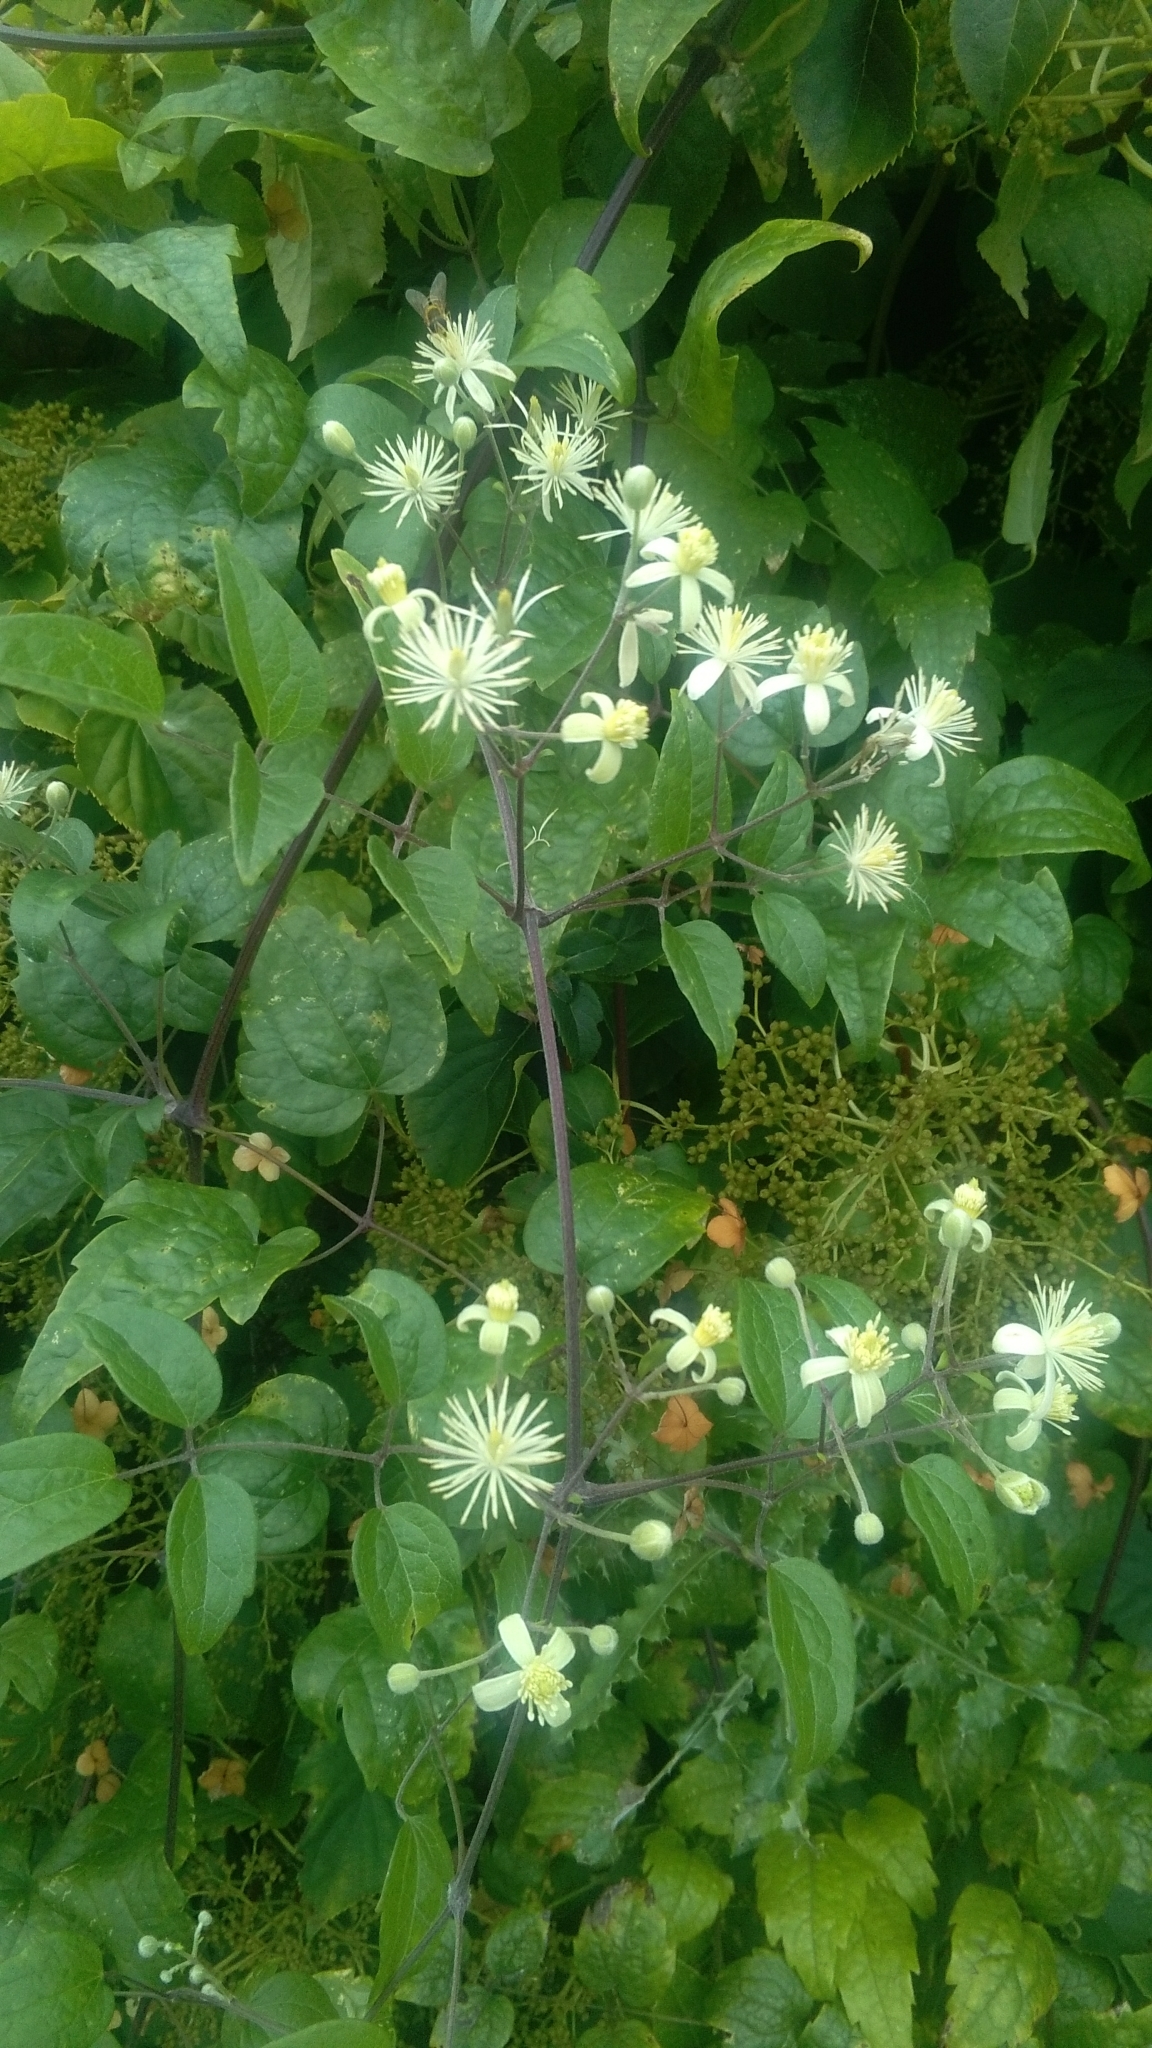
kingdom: Plantae
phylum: Tracheophyta
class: Magnoliopsida
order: Ranunculales
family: Ranunculaceae
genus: Clematis
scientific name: Clematis vitalba
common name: Evergreen clematis
